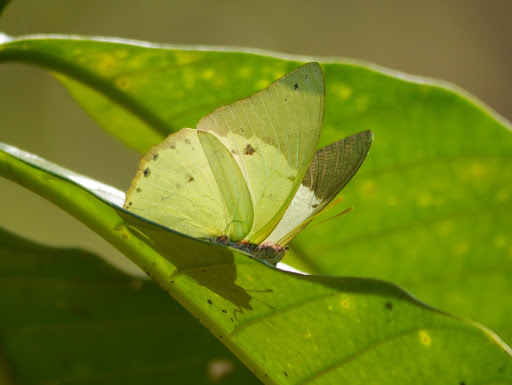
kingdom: Animalia
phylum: Arthropoda
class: Insecta
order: Lepidoptera
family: Nymphalidae
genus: Charaxes
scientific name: Charaxes eupale
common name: Common green charaxes
